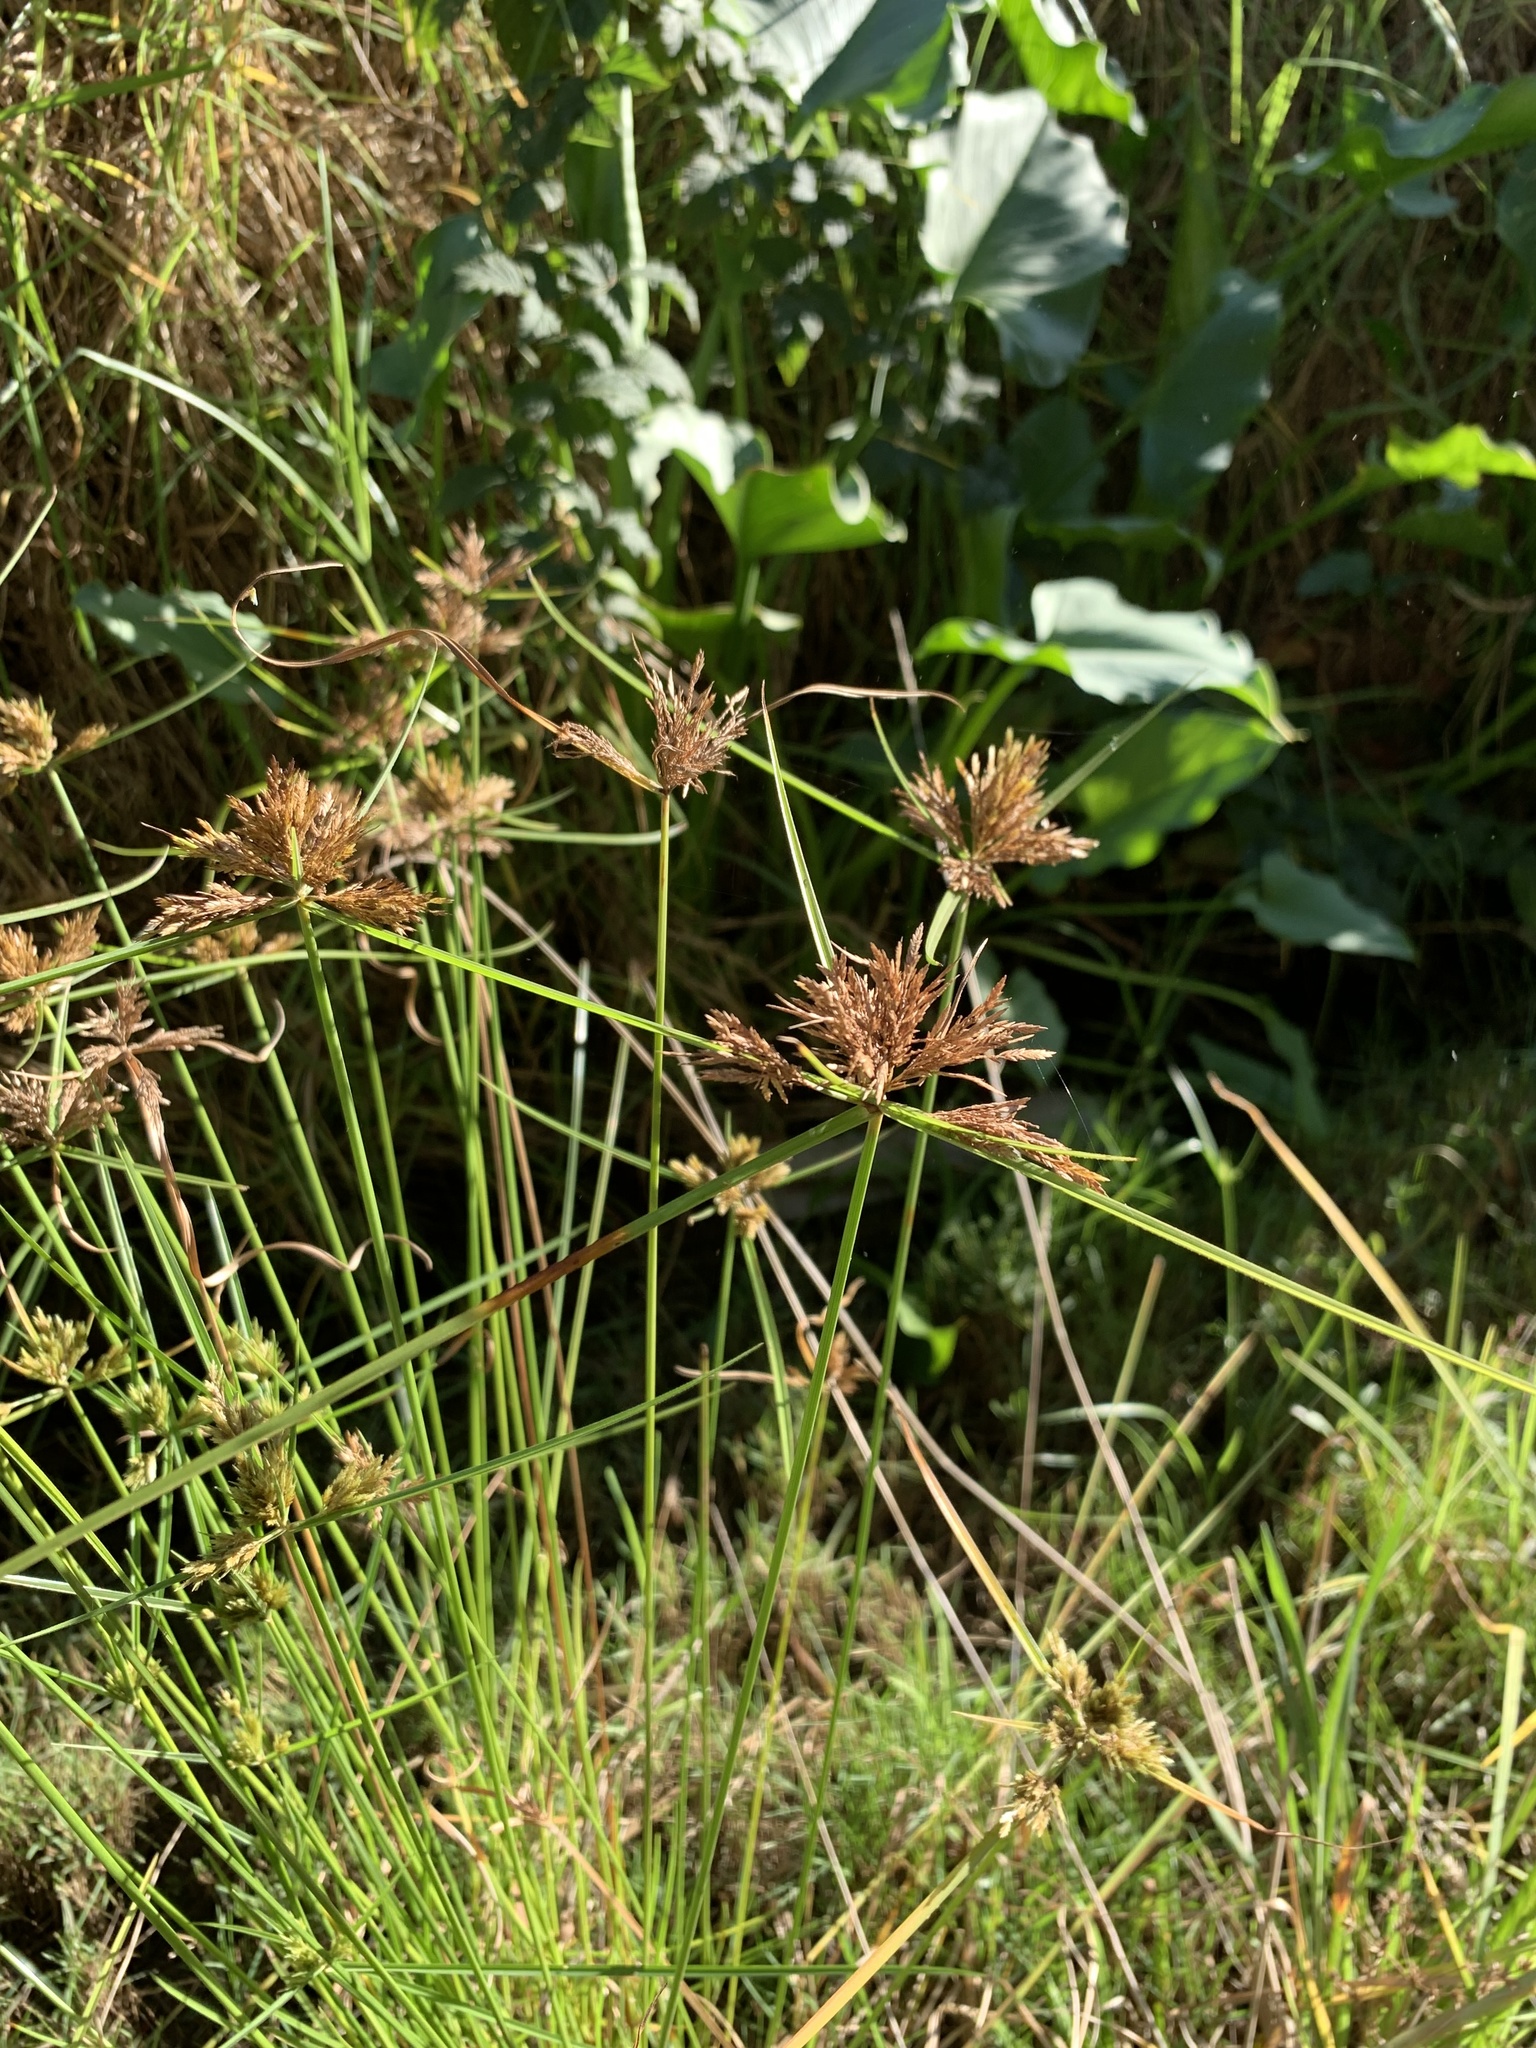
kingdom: Plantae
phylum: Tracheophyta
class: Liliopsida
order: Poales
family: Cyperaceae
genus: Cyperus
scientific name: Cyperus polystachyos
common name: Bunchy flat sedge
